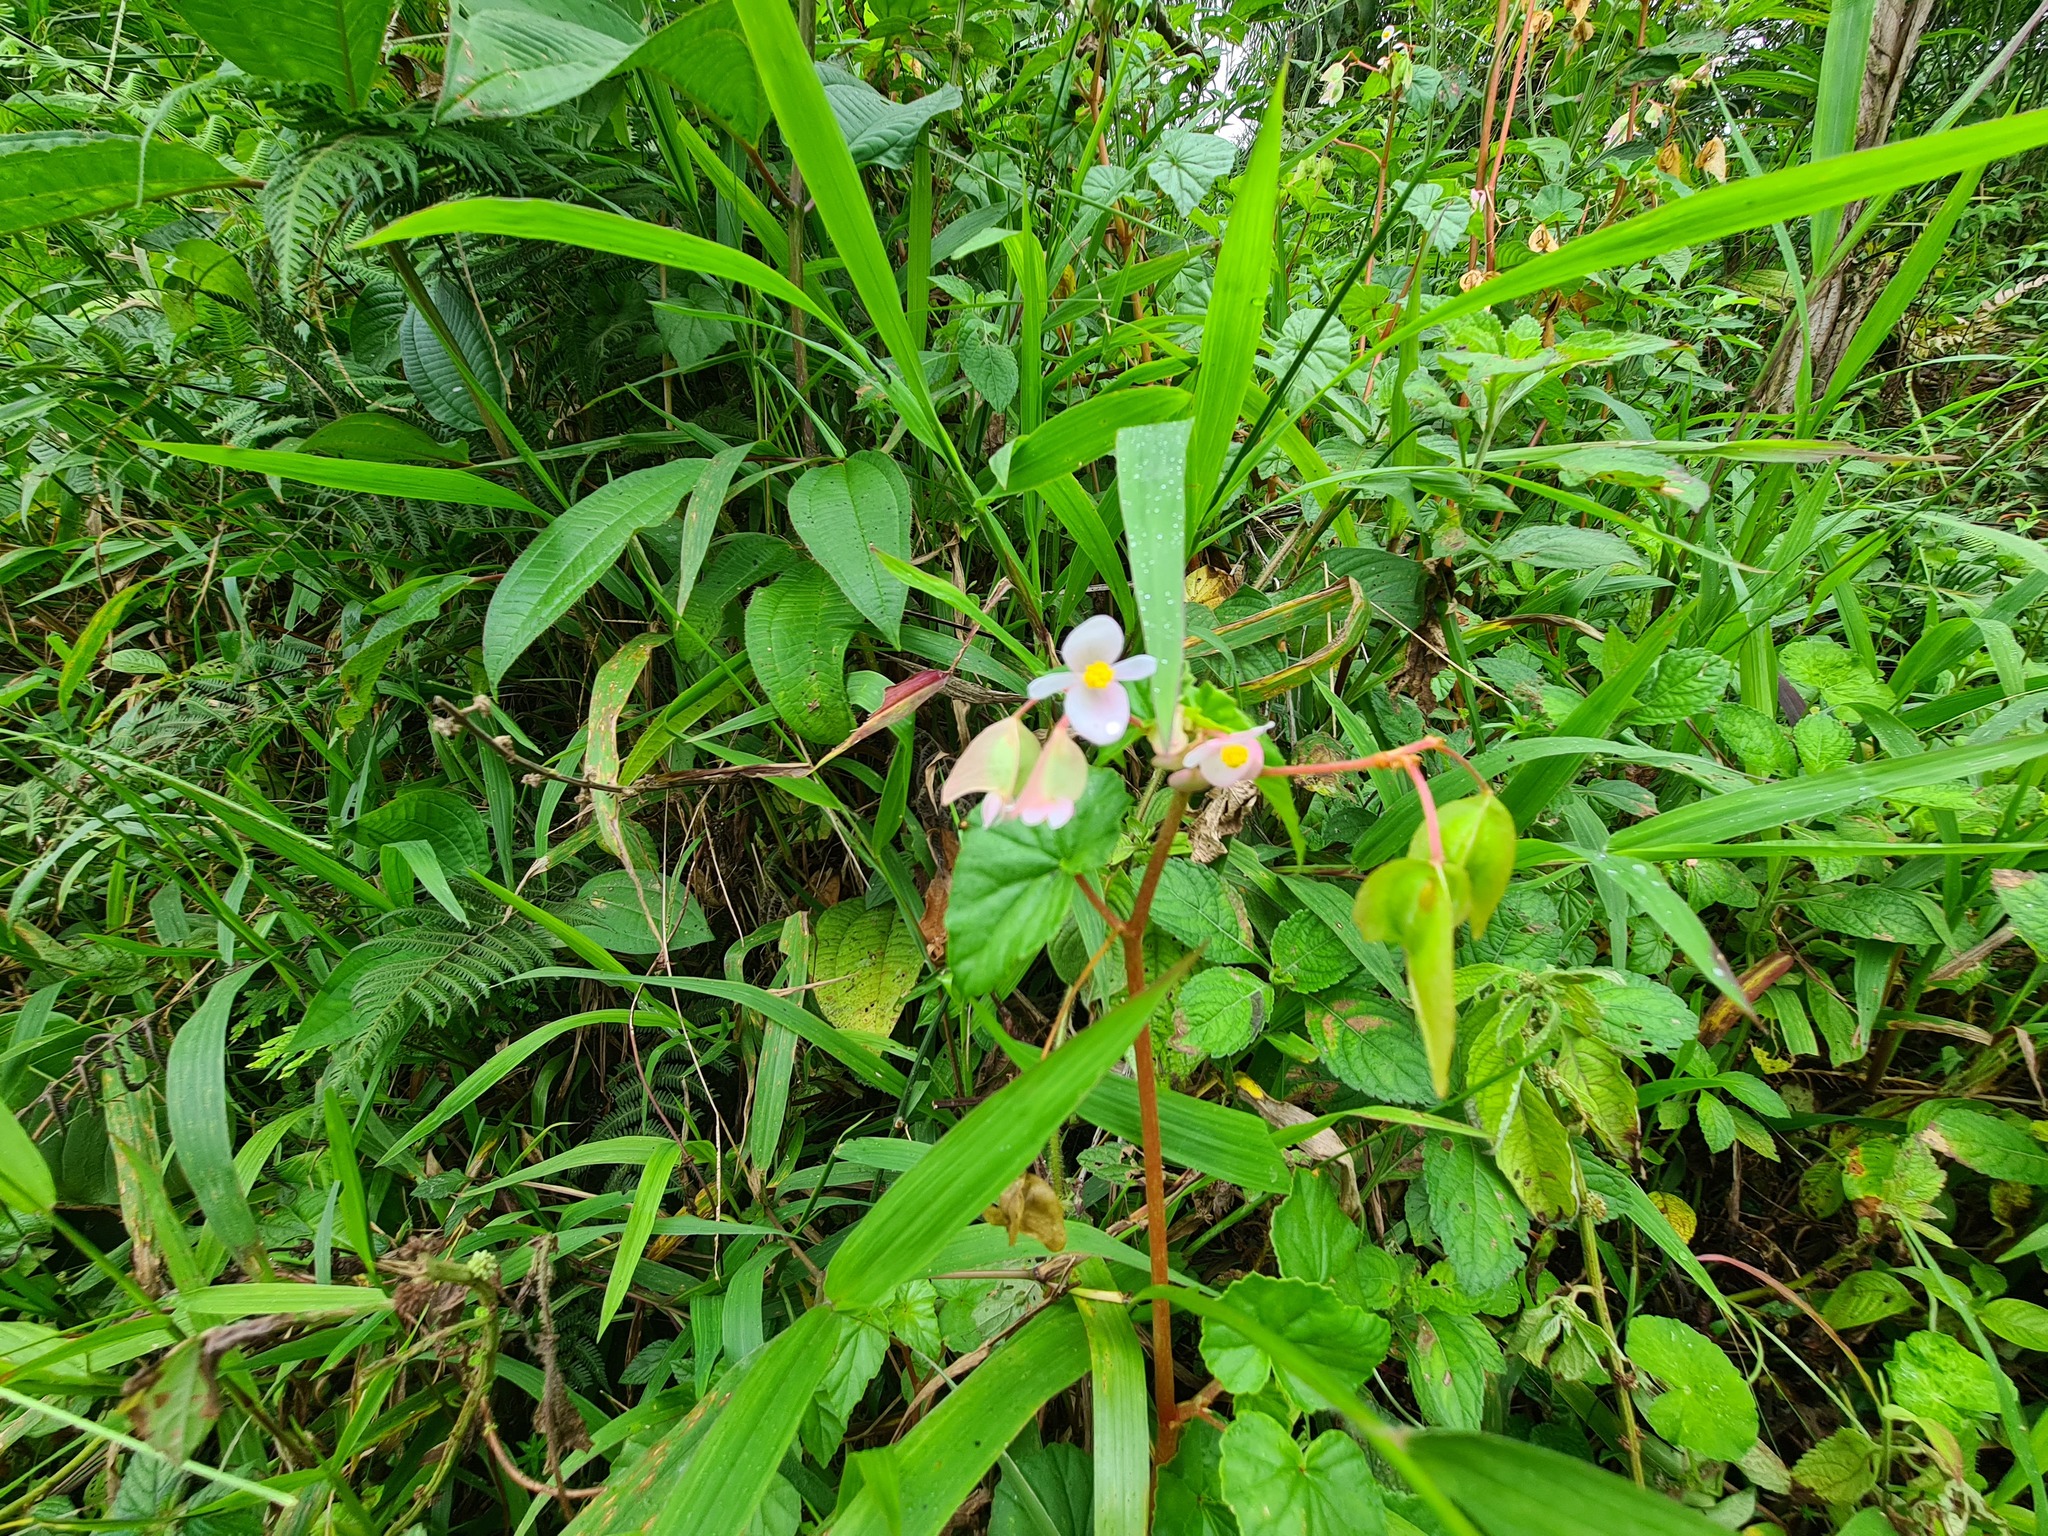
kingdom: Plantae
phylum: Tracheophyta
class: Magnoliopsida
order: Cucurbitales
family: Begoniaceae
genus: Begonia
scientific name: Begonia fischeri
